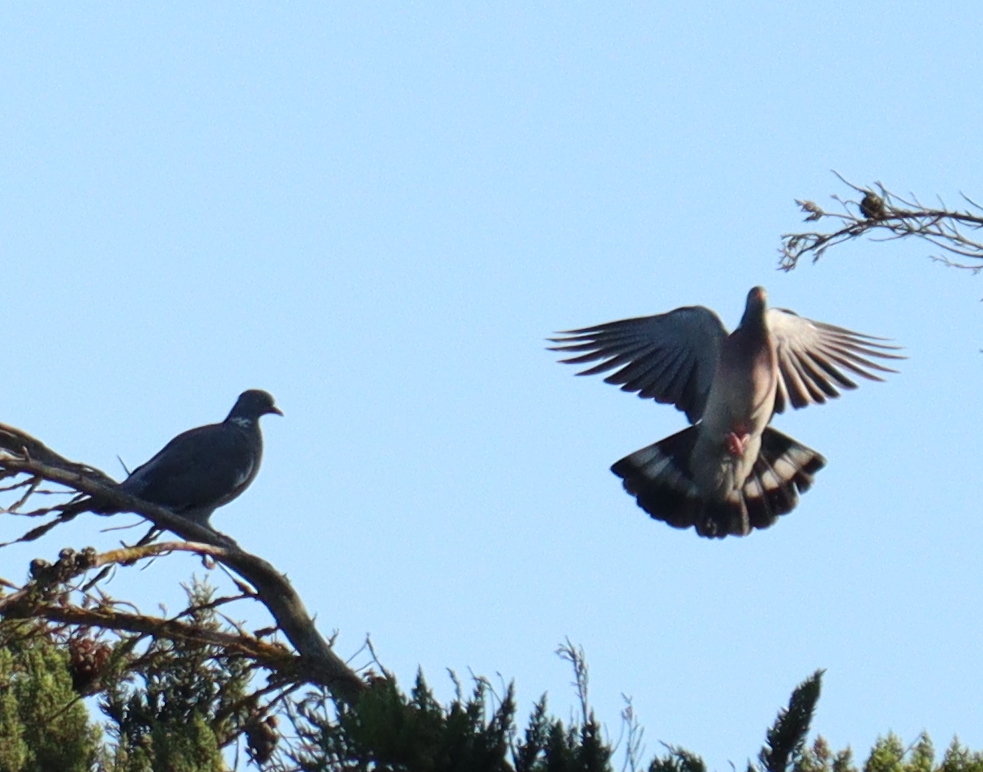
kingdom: Animalia
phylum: Chordata
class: Aves
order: Columbiformes
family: Columbidae
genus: Columba
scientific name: Columba palumbus
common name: Common wood pigeon
